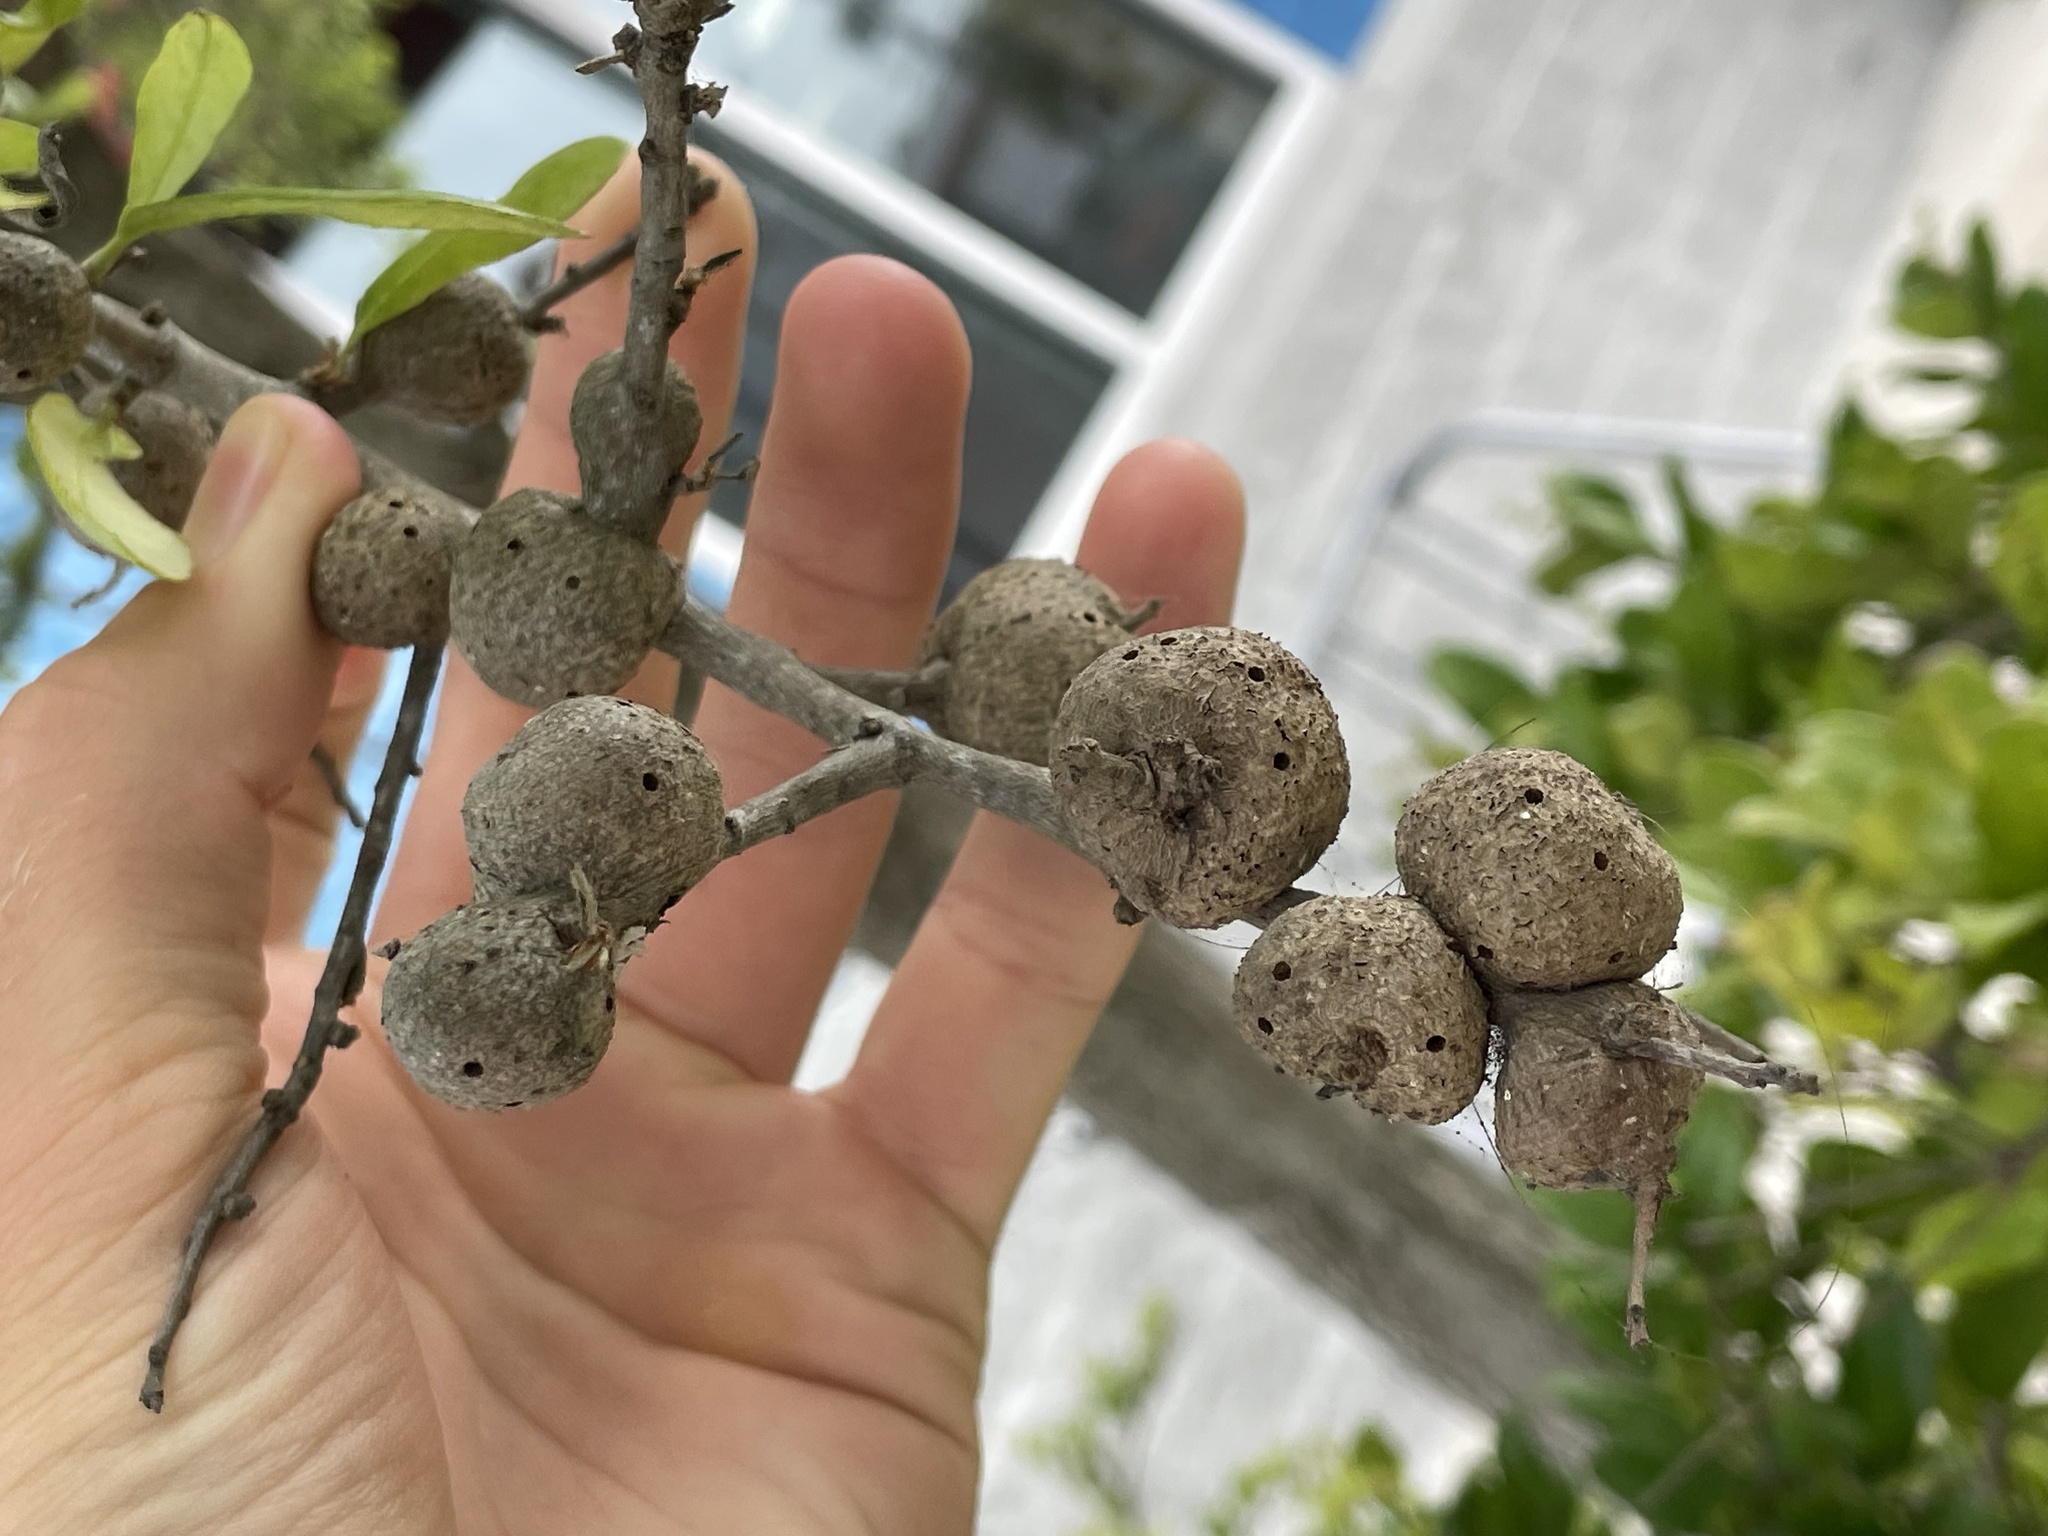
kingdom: Animalia
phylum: Arthropoda
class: Insecta
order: Hymenoptera
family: Cynipidae
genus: Callirhytis
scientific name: Callirhytis
